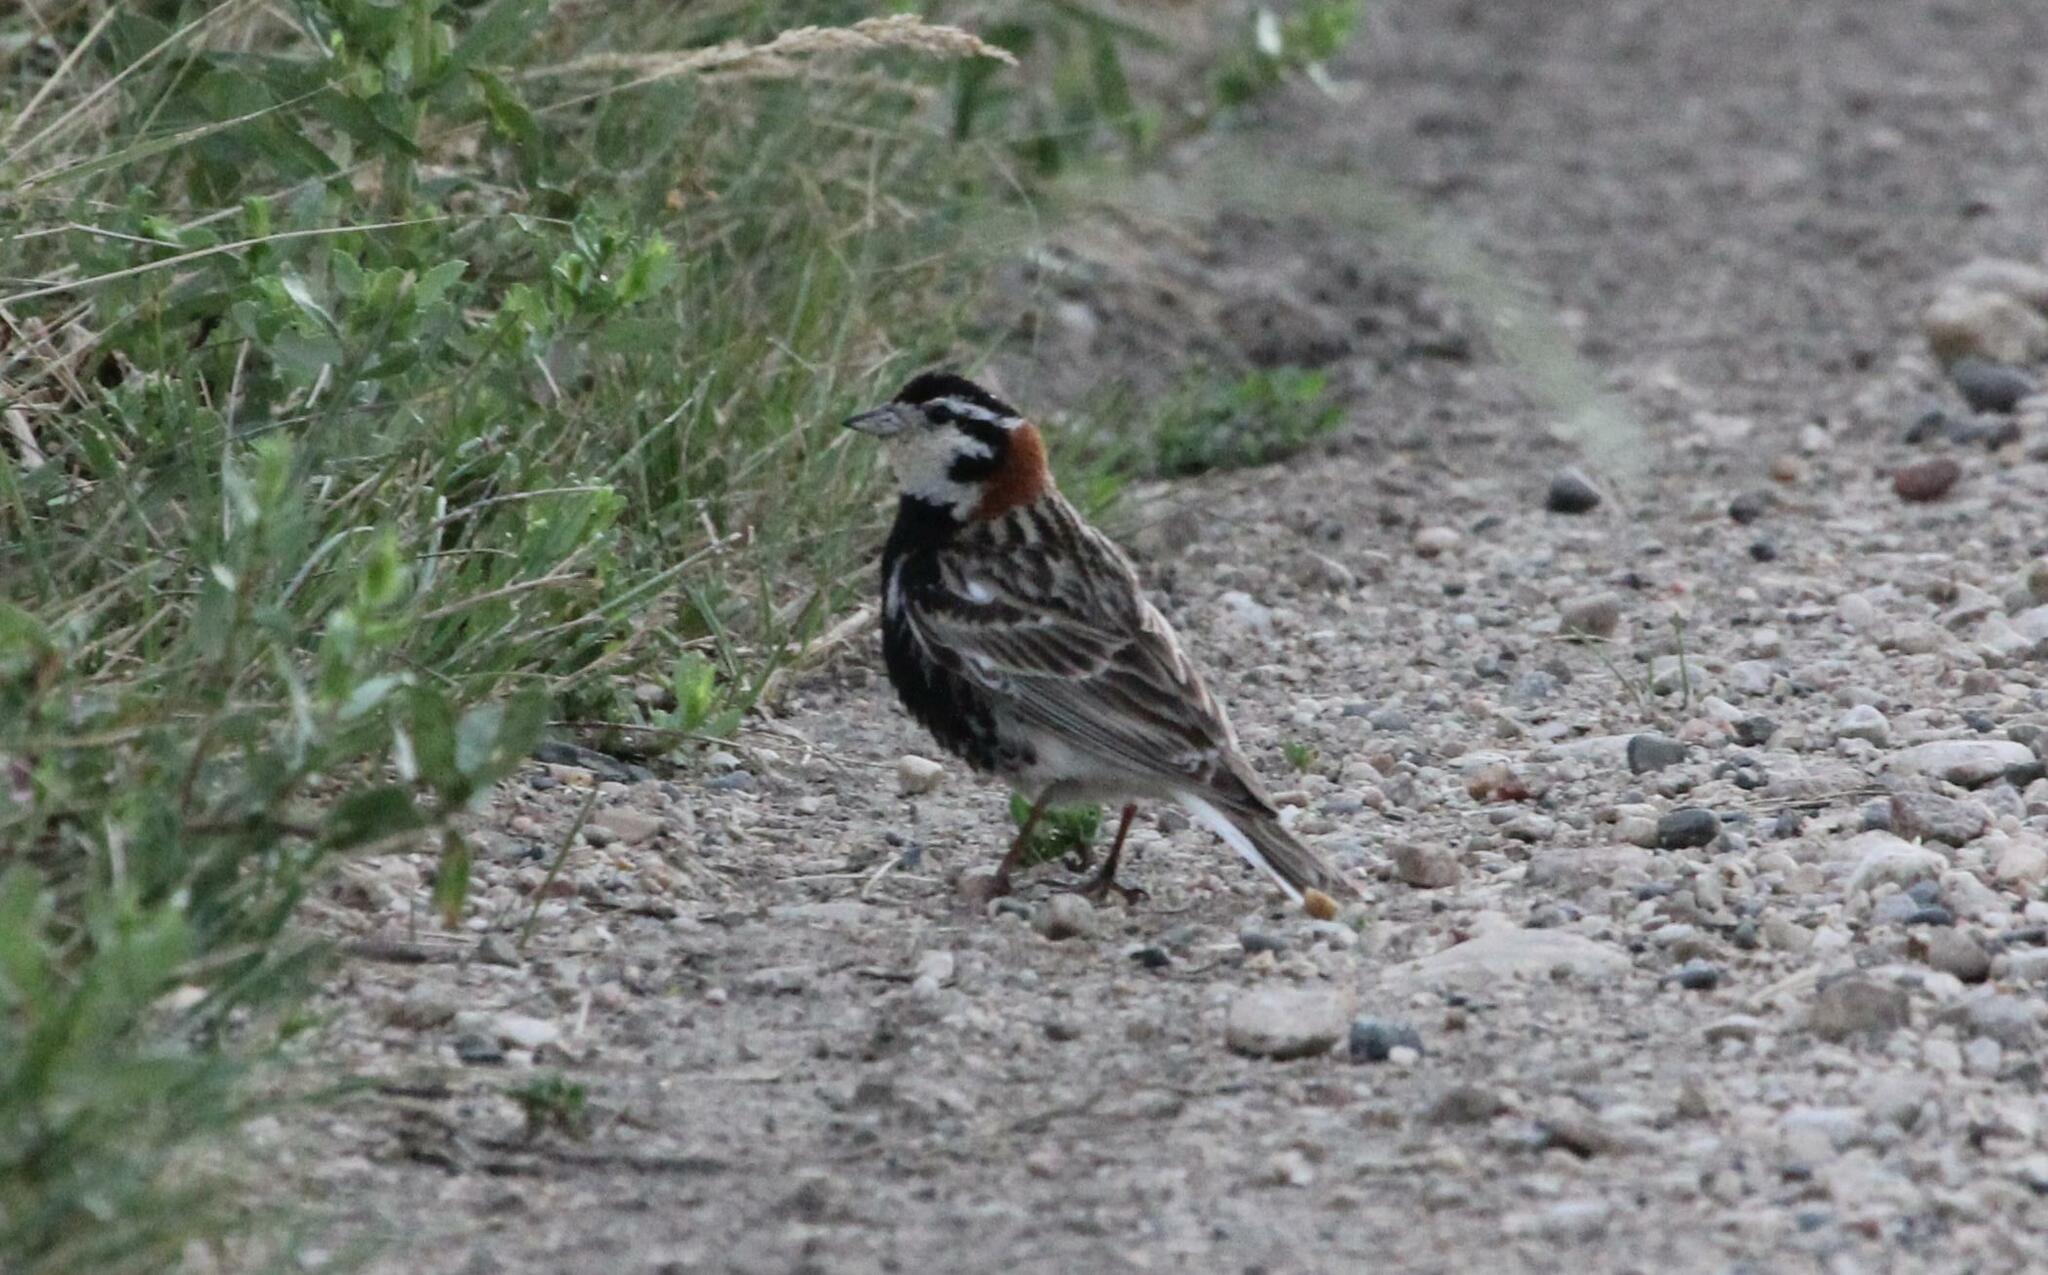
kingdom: Animalia
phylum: Chordata
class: Aves
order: Passeriformes
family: Calcariidae
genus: Calcarius
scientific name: Calcarius ornatus
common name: Chestnut-collared longspur
